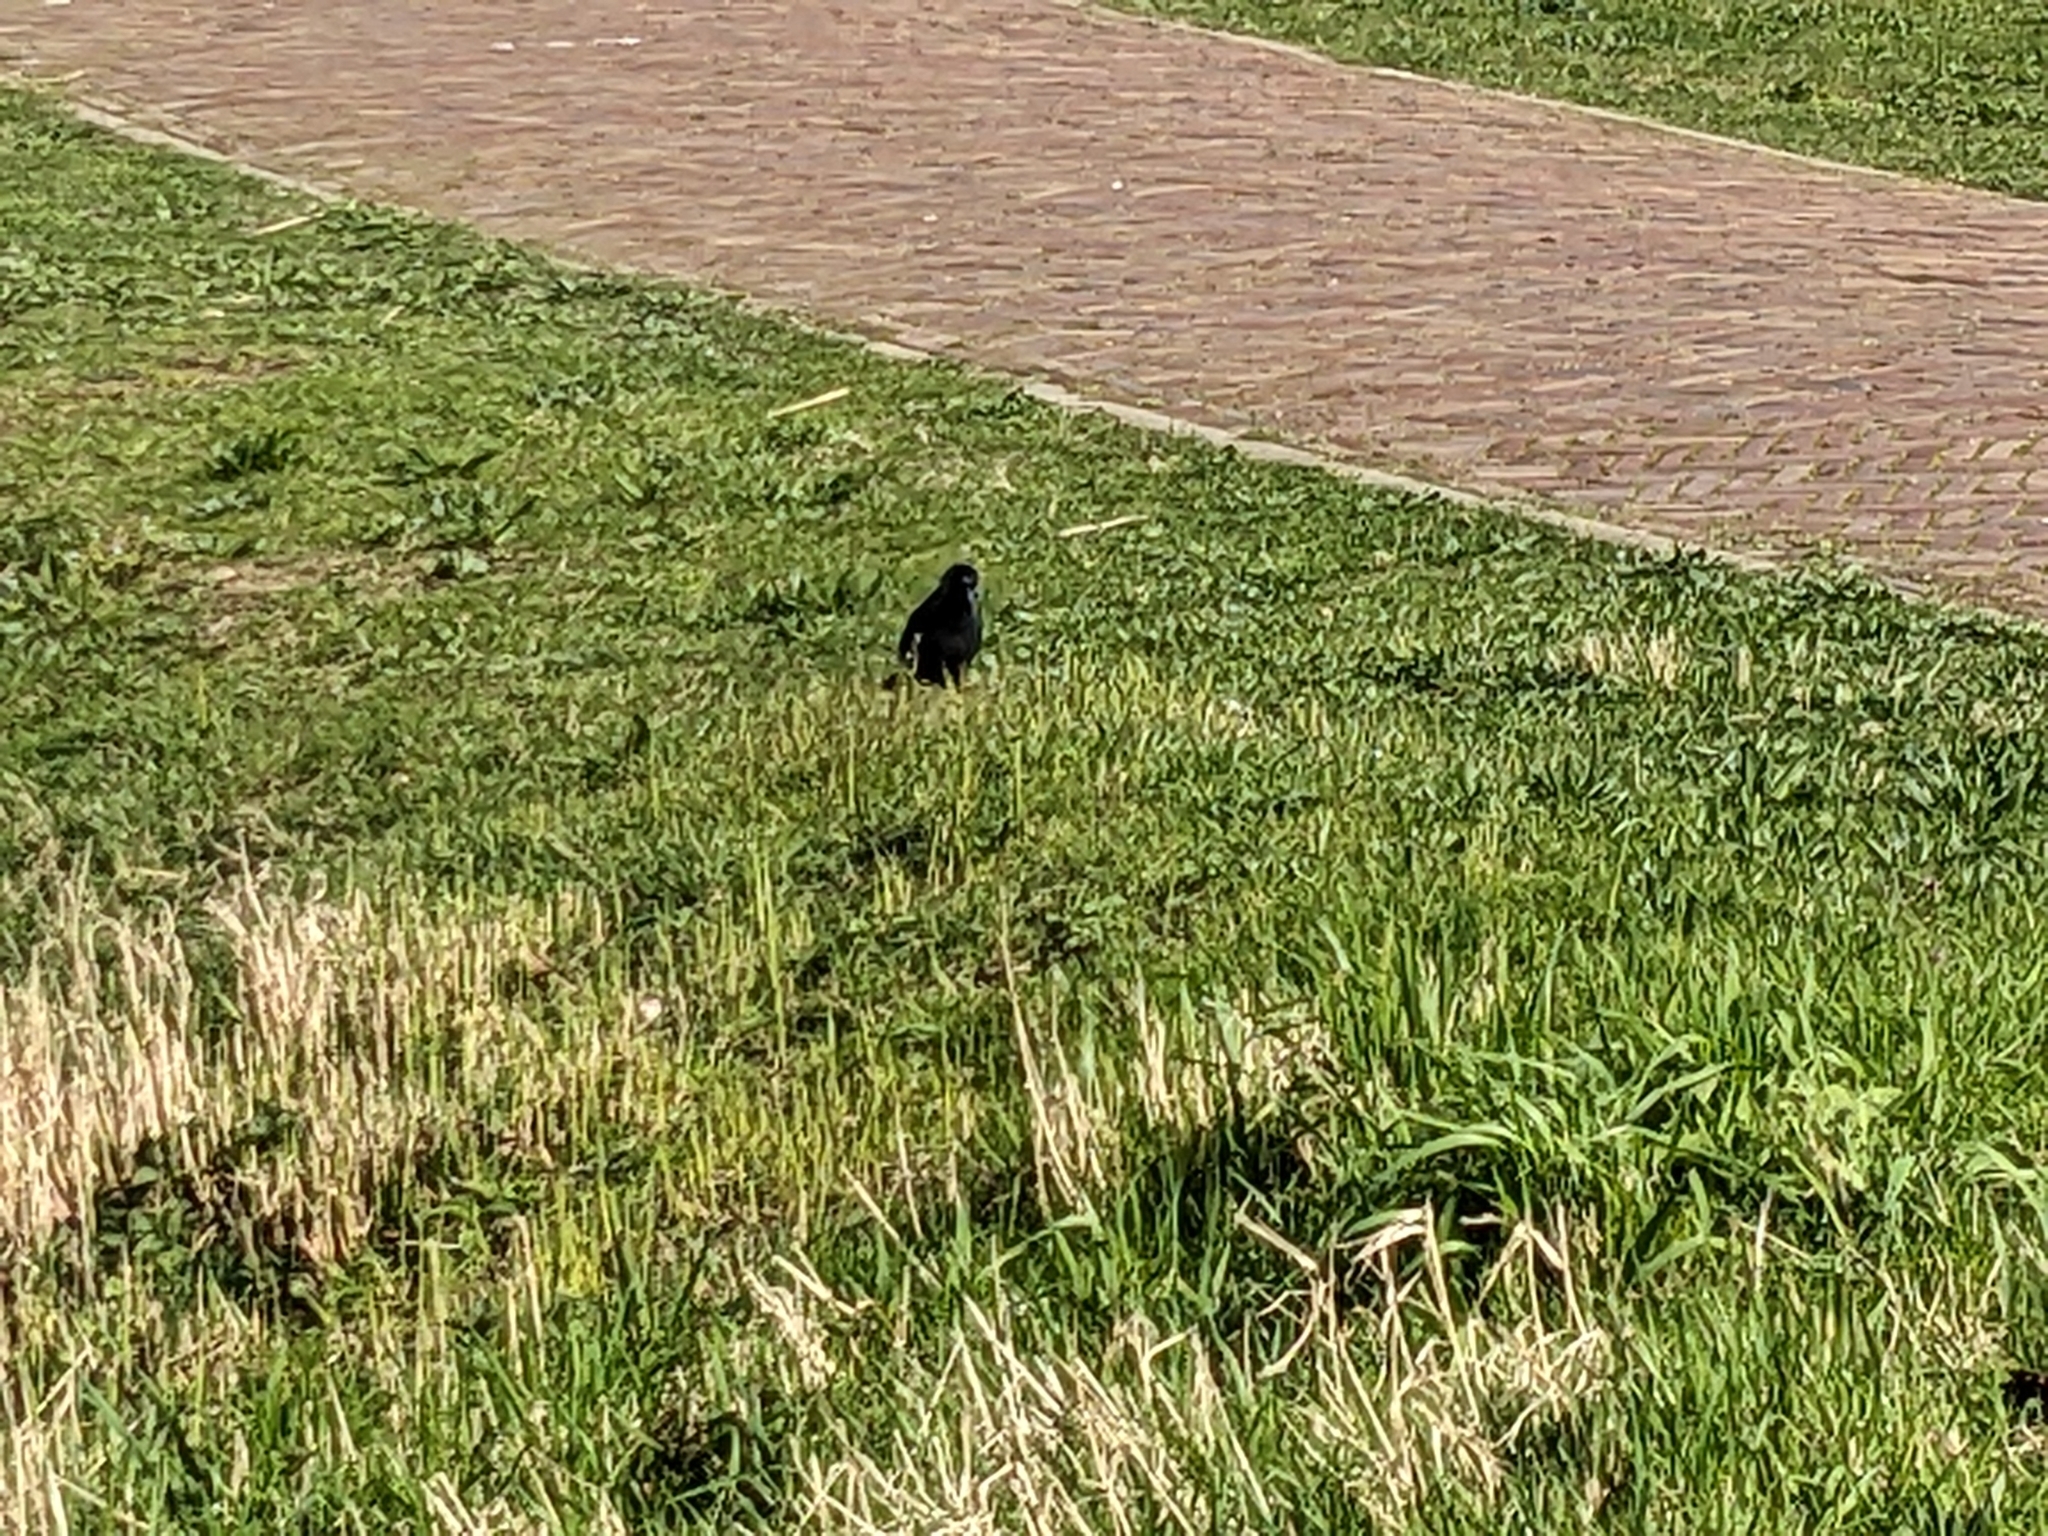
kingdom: Animalia
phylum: Chordata
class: Aves
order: Passeriformes
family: Corvidae
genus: Coloeus
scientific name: Coloeus monedula
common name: Western jackdaw
